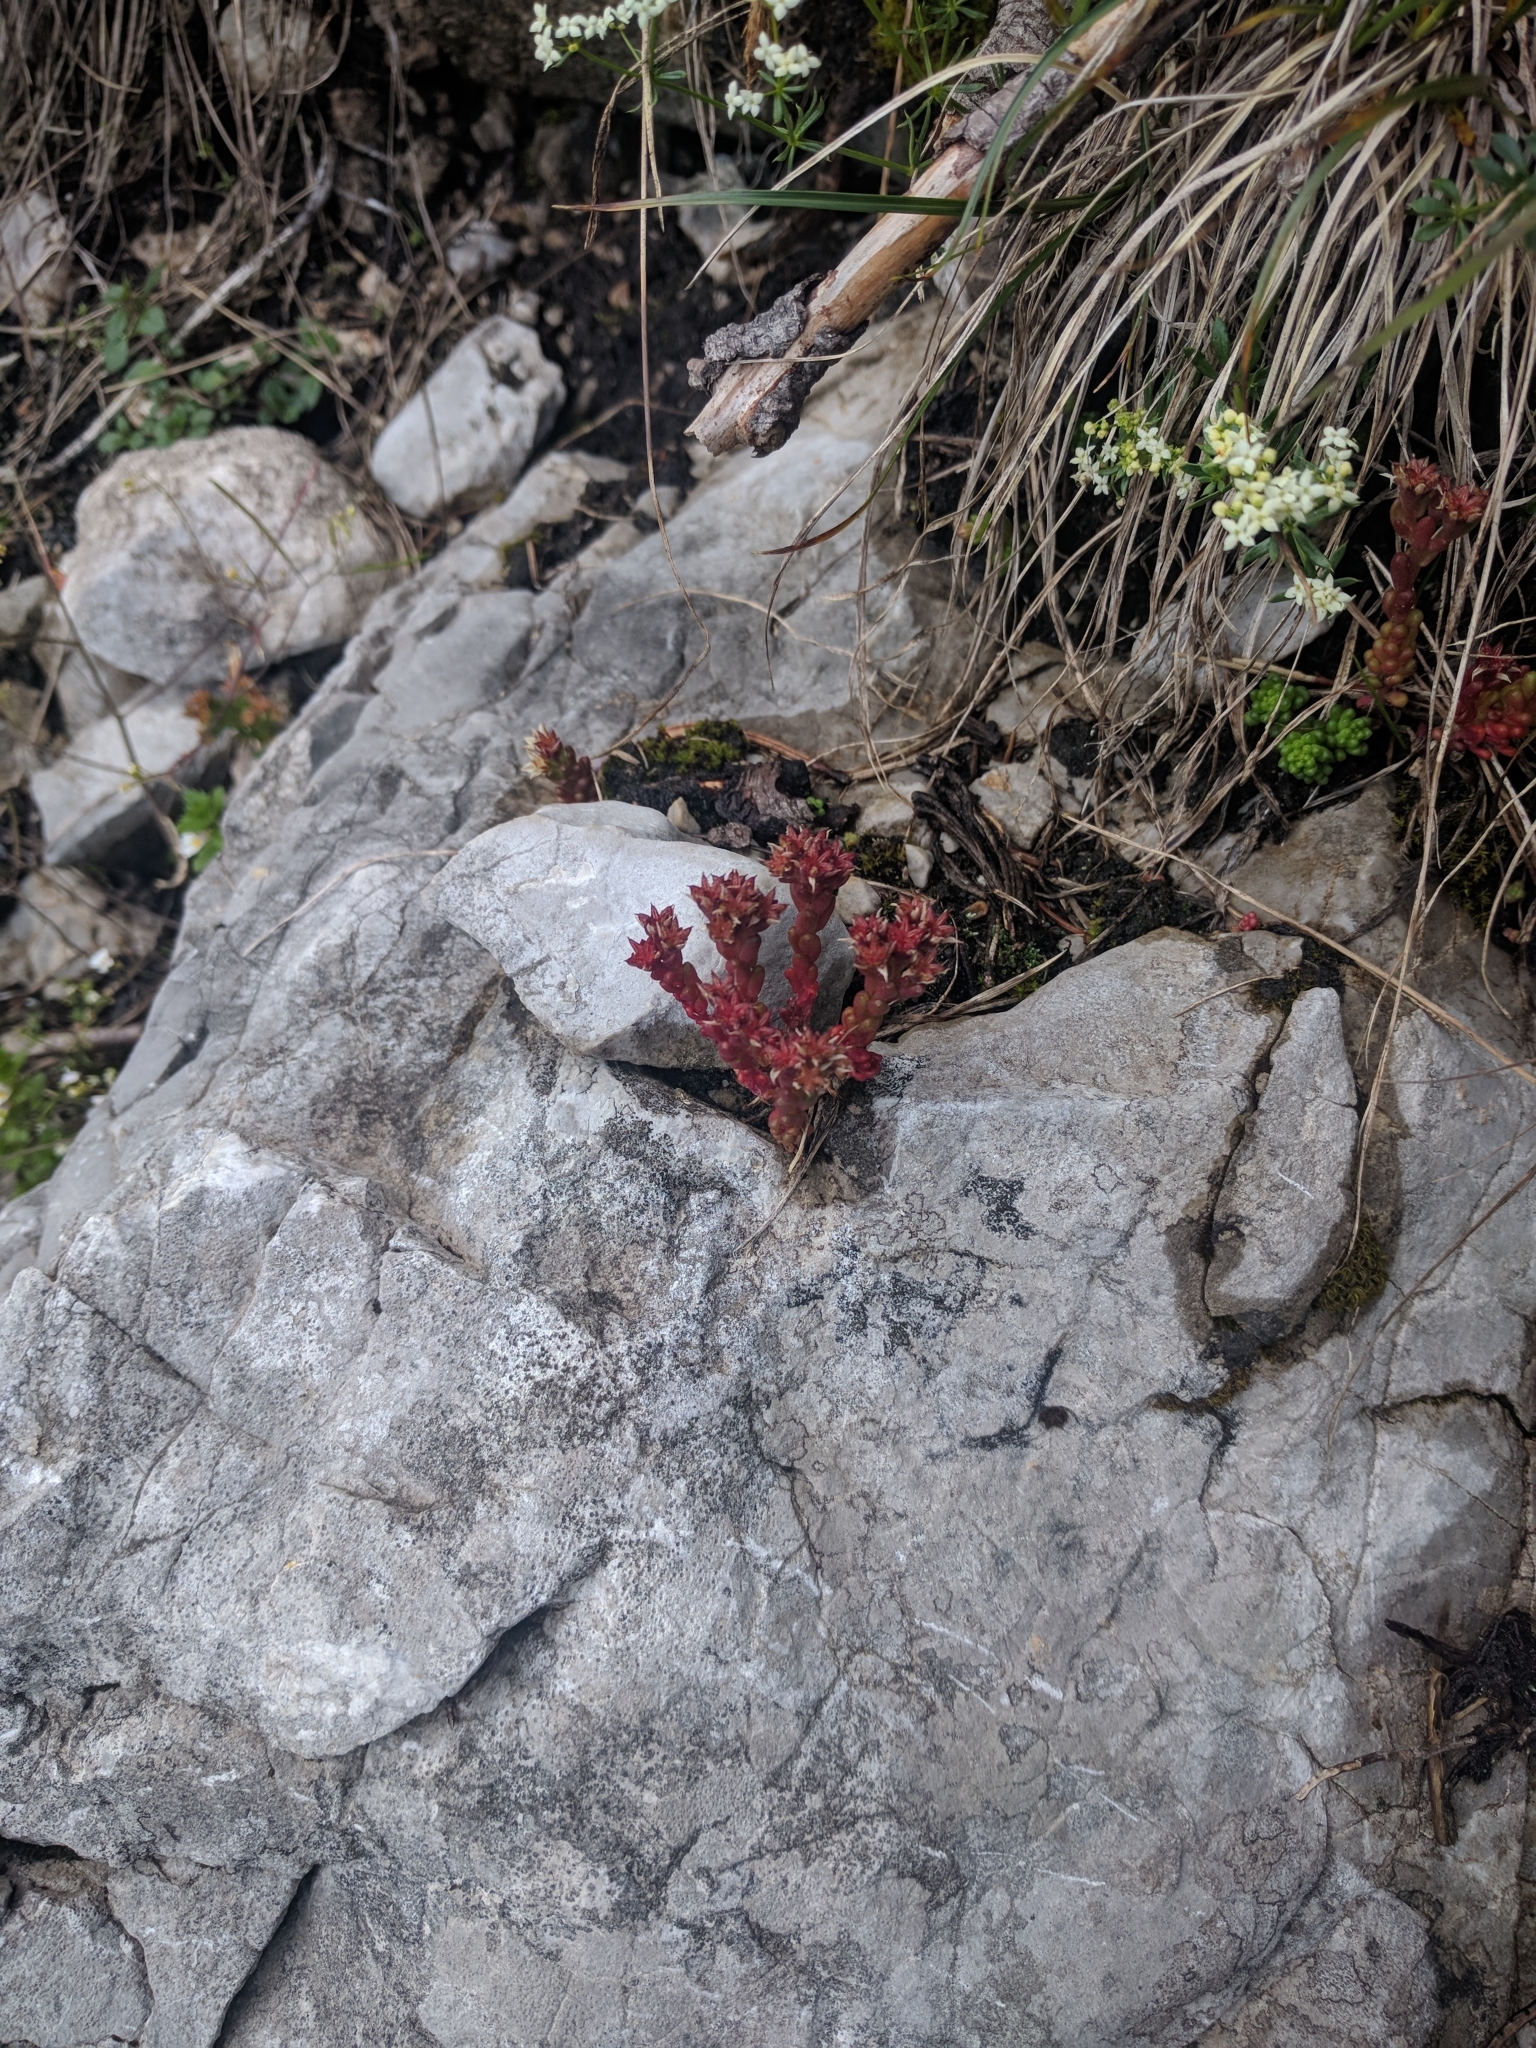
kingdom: Plantae
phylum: Tracheophyta
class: Magnoliopsida
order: Saxifragales
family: Crassulaceae
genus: Sedum
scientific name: Sedum atratum
